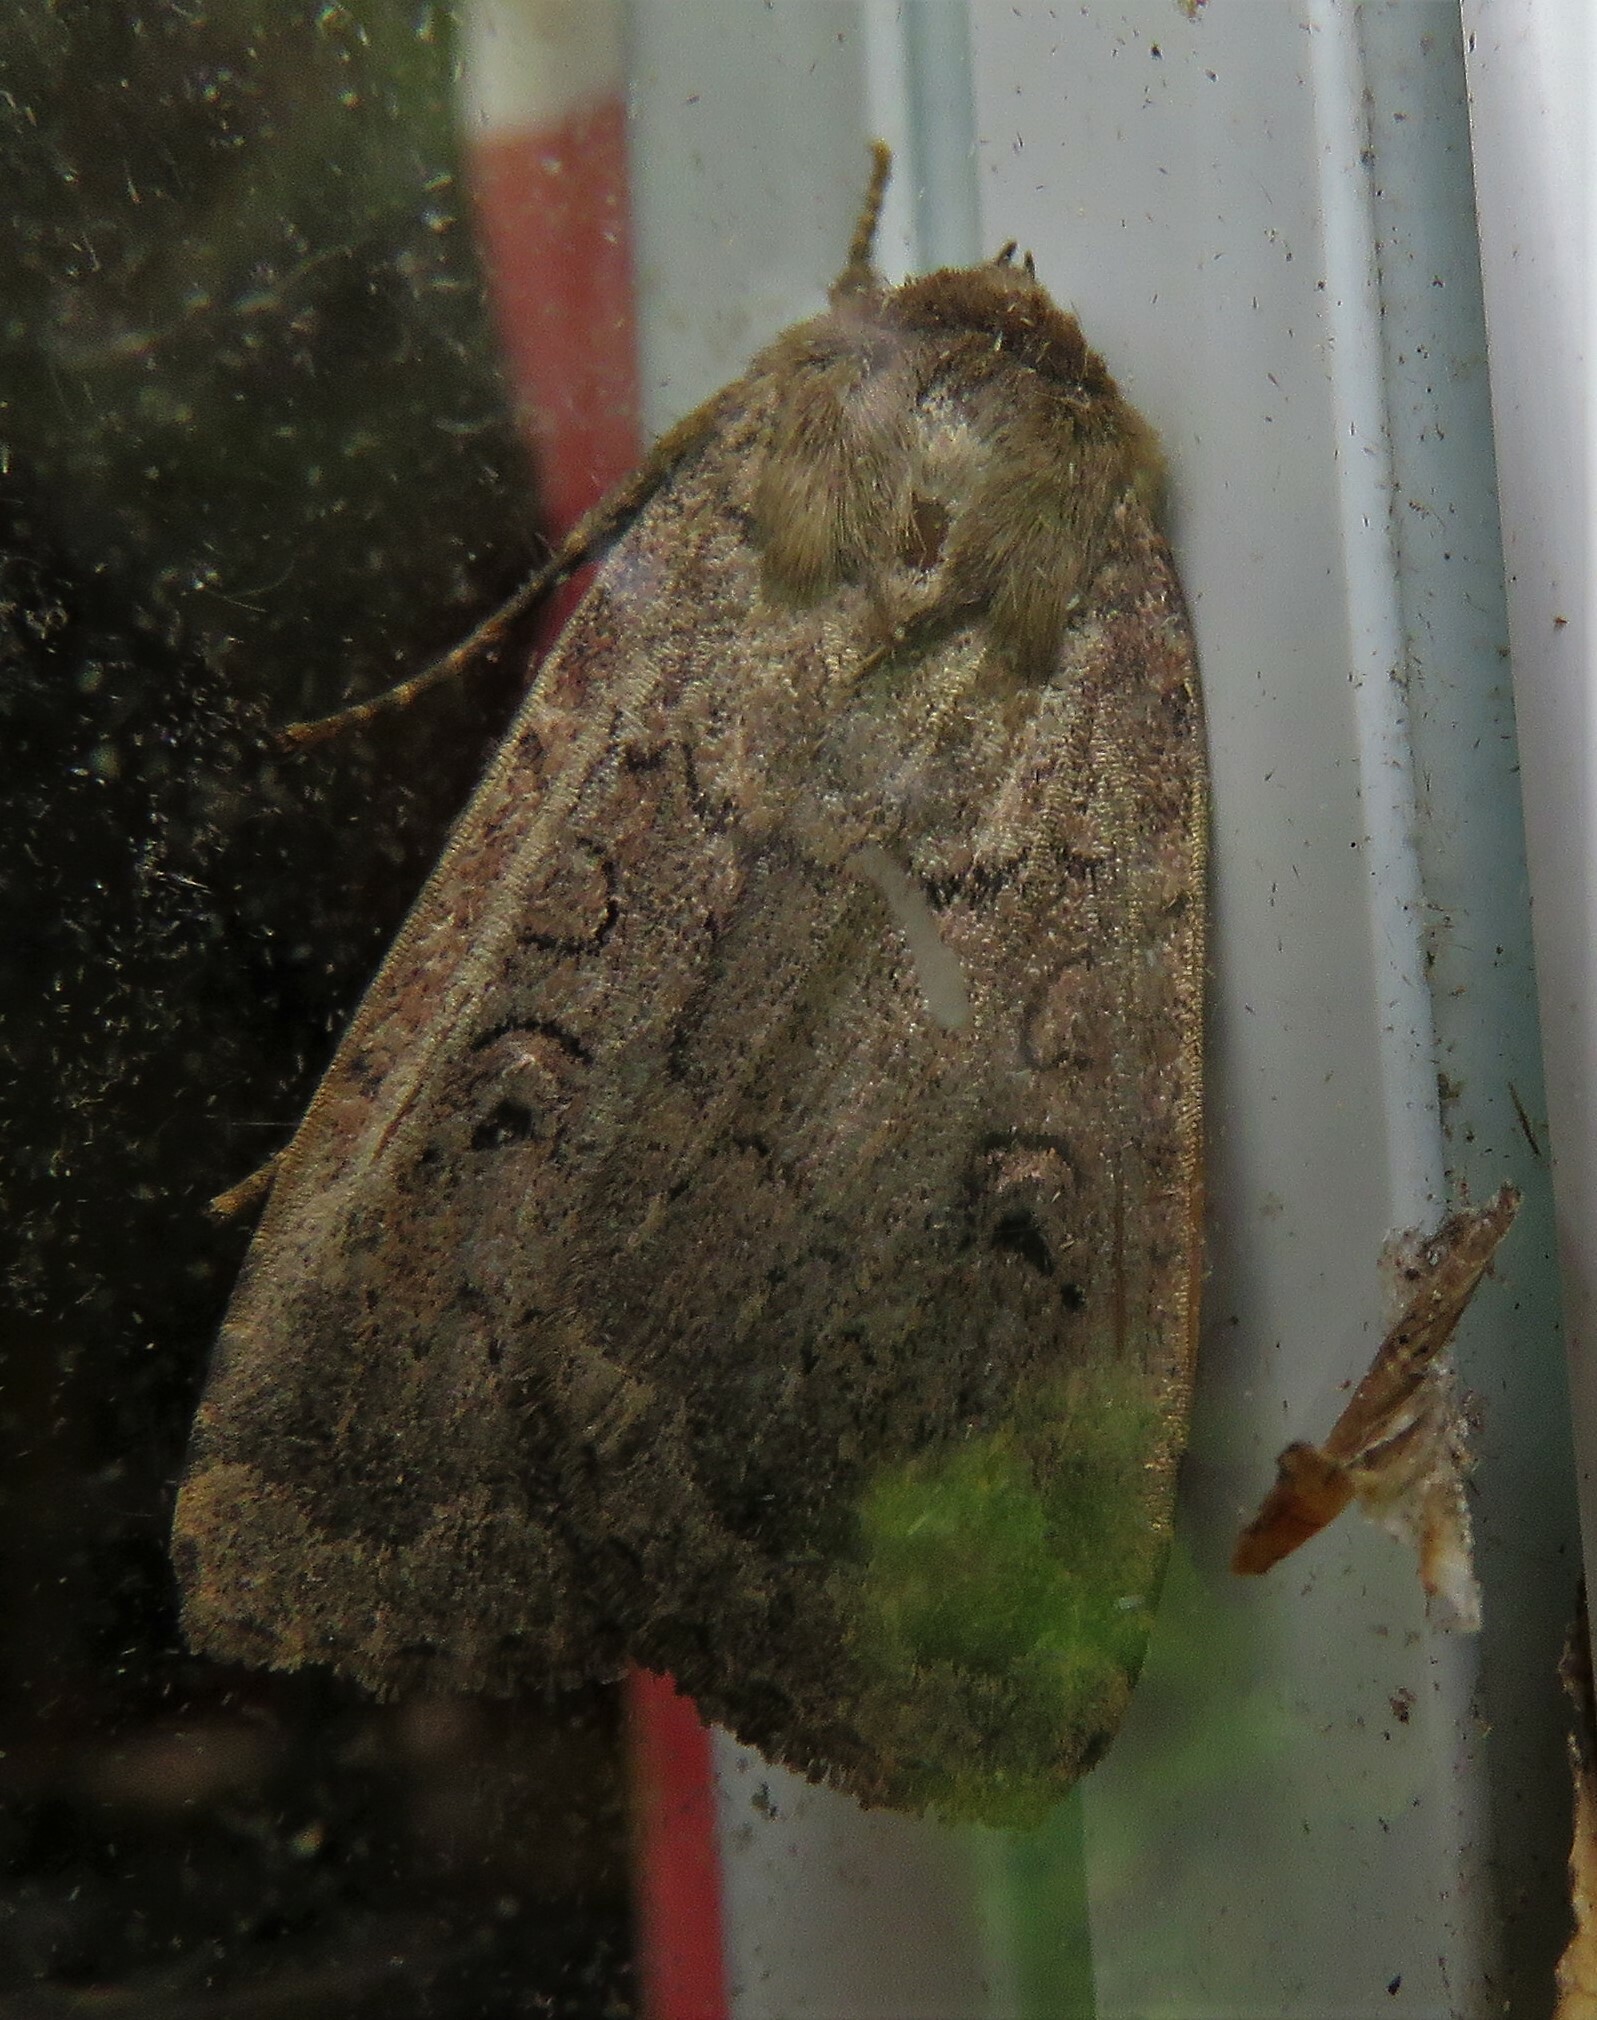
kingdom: Animalia
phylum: Arthropoda
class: Insecta
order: Lepidoptera
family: Noctuidae
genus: Graphiphora
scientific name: Graphiphora augur
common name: Double dart
